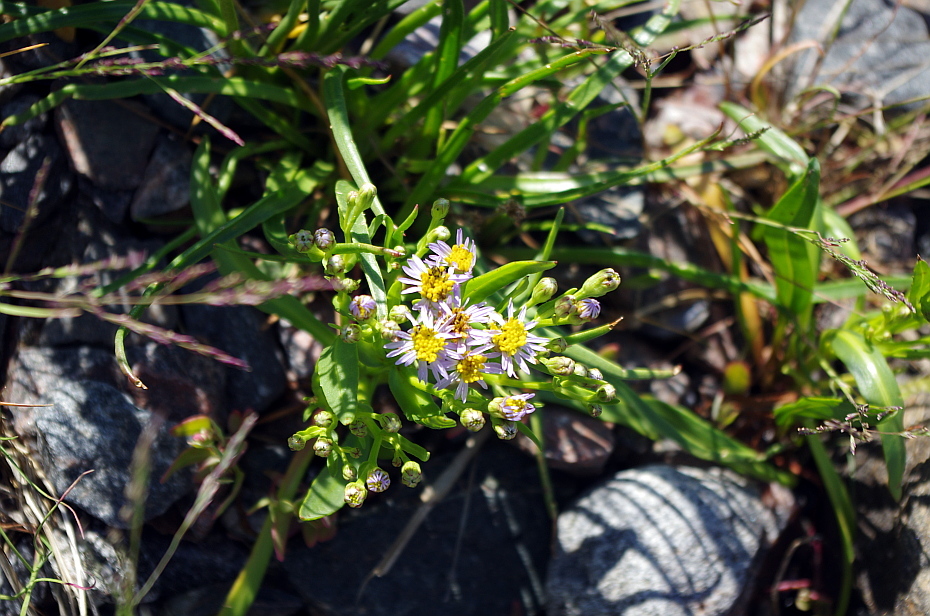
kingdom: Plantae
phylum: Tracheophyta
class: Magnoliopsida
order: Asterales
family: Asteraceae
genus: Tripolium
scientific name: Tripolium pannonicum
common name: Sea aster
